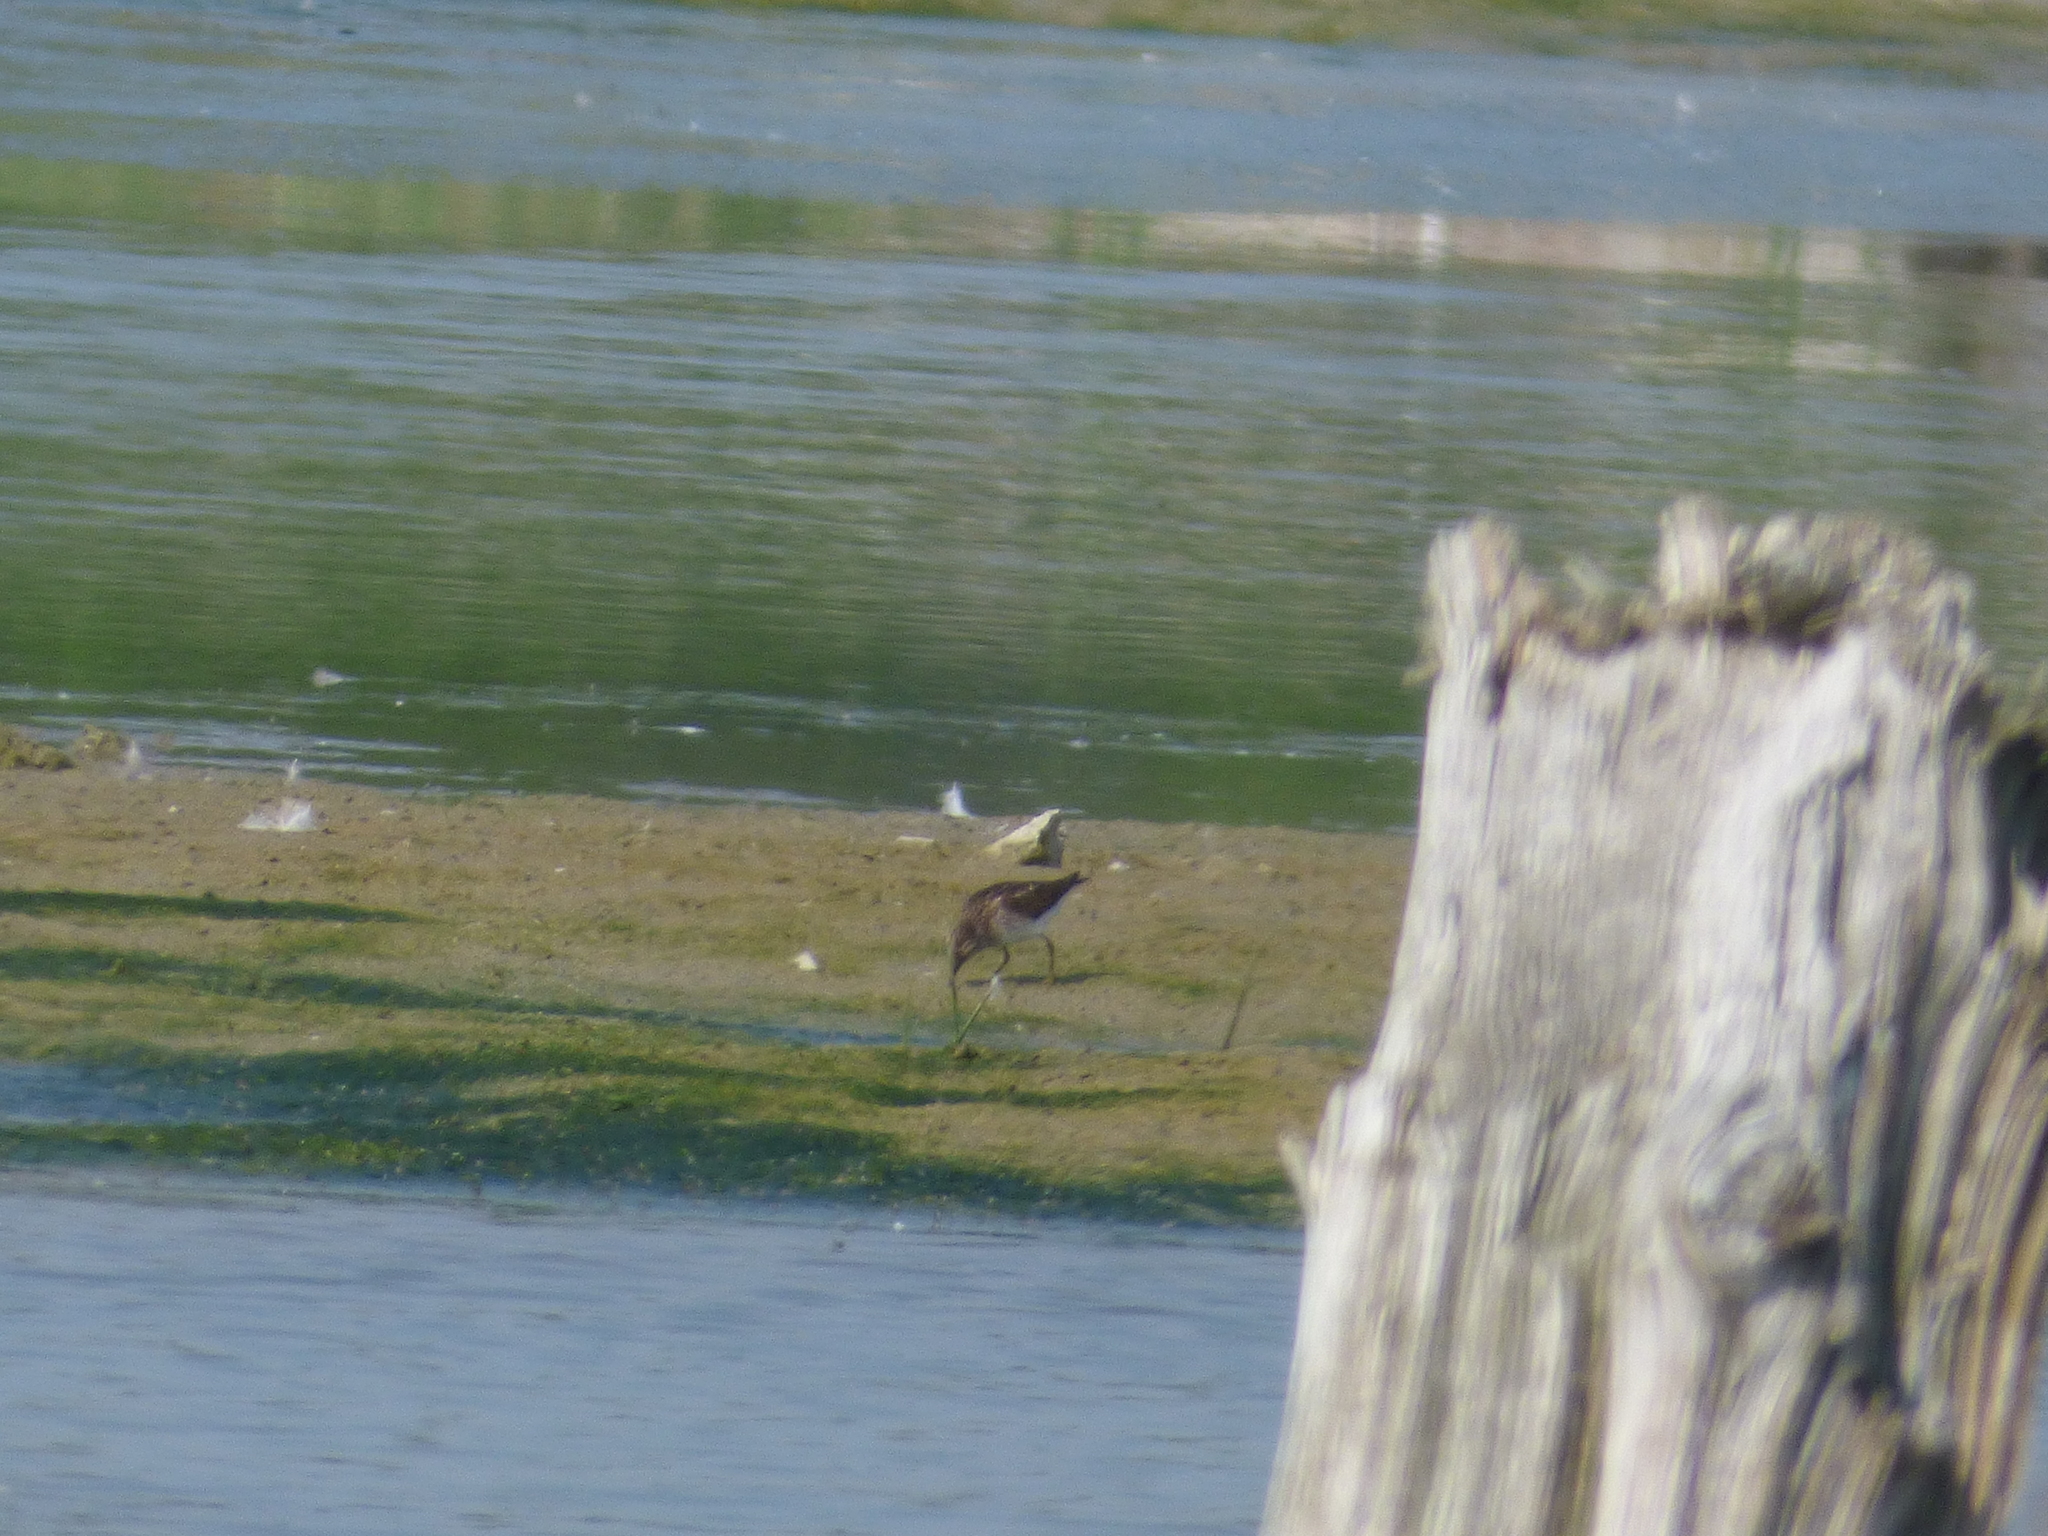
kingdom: Animalia
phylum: Chordata
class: Aves
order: Charadriiformes
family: Scolopacidae
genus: Calidris
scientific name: Calidris minutilla
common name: Least sandpiper
